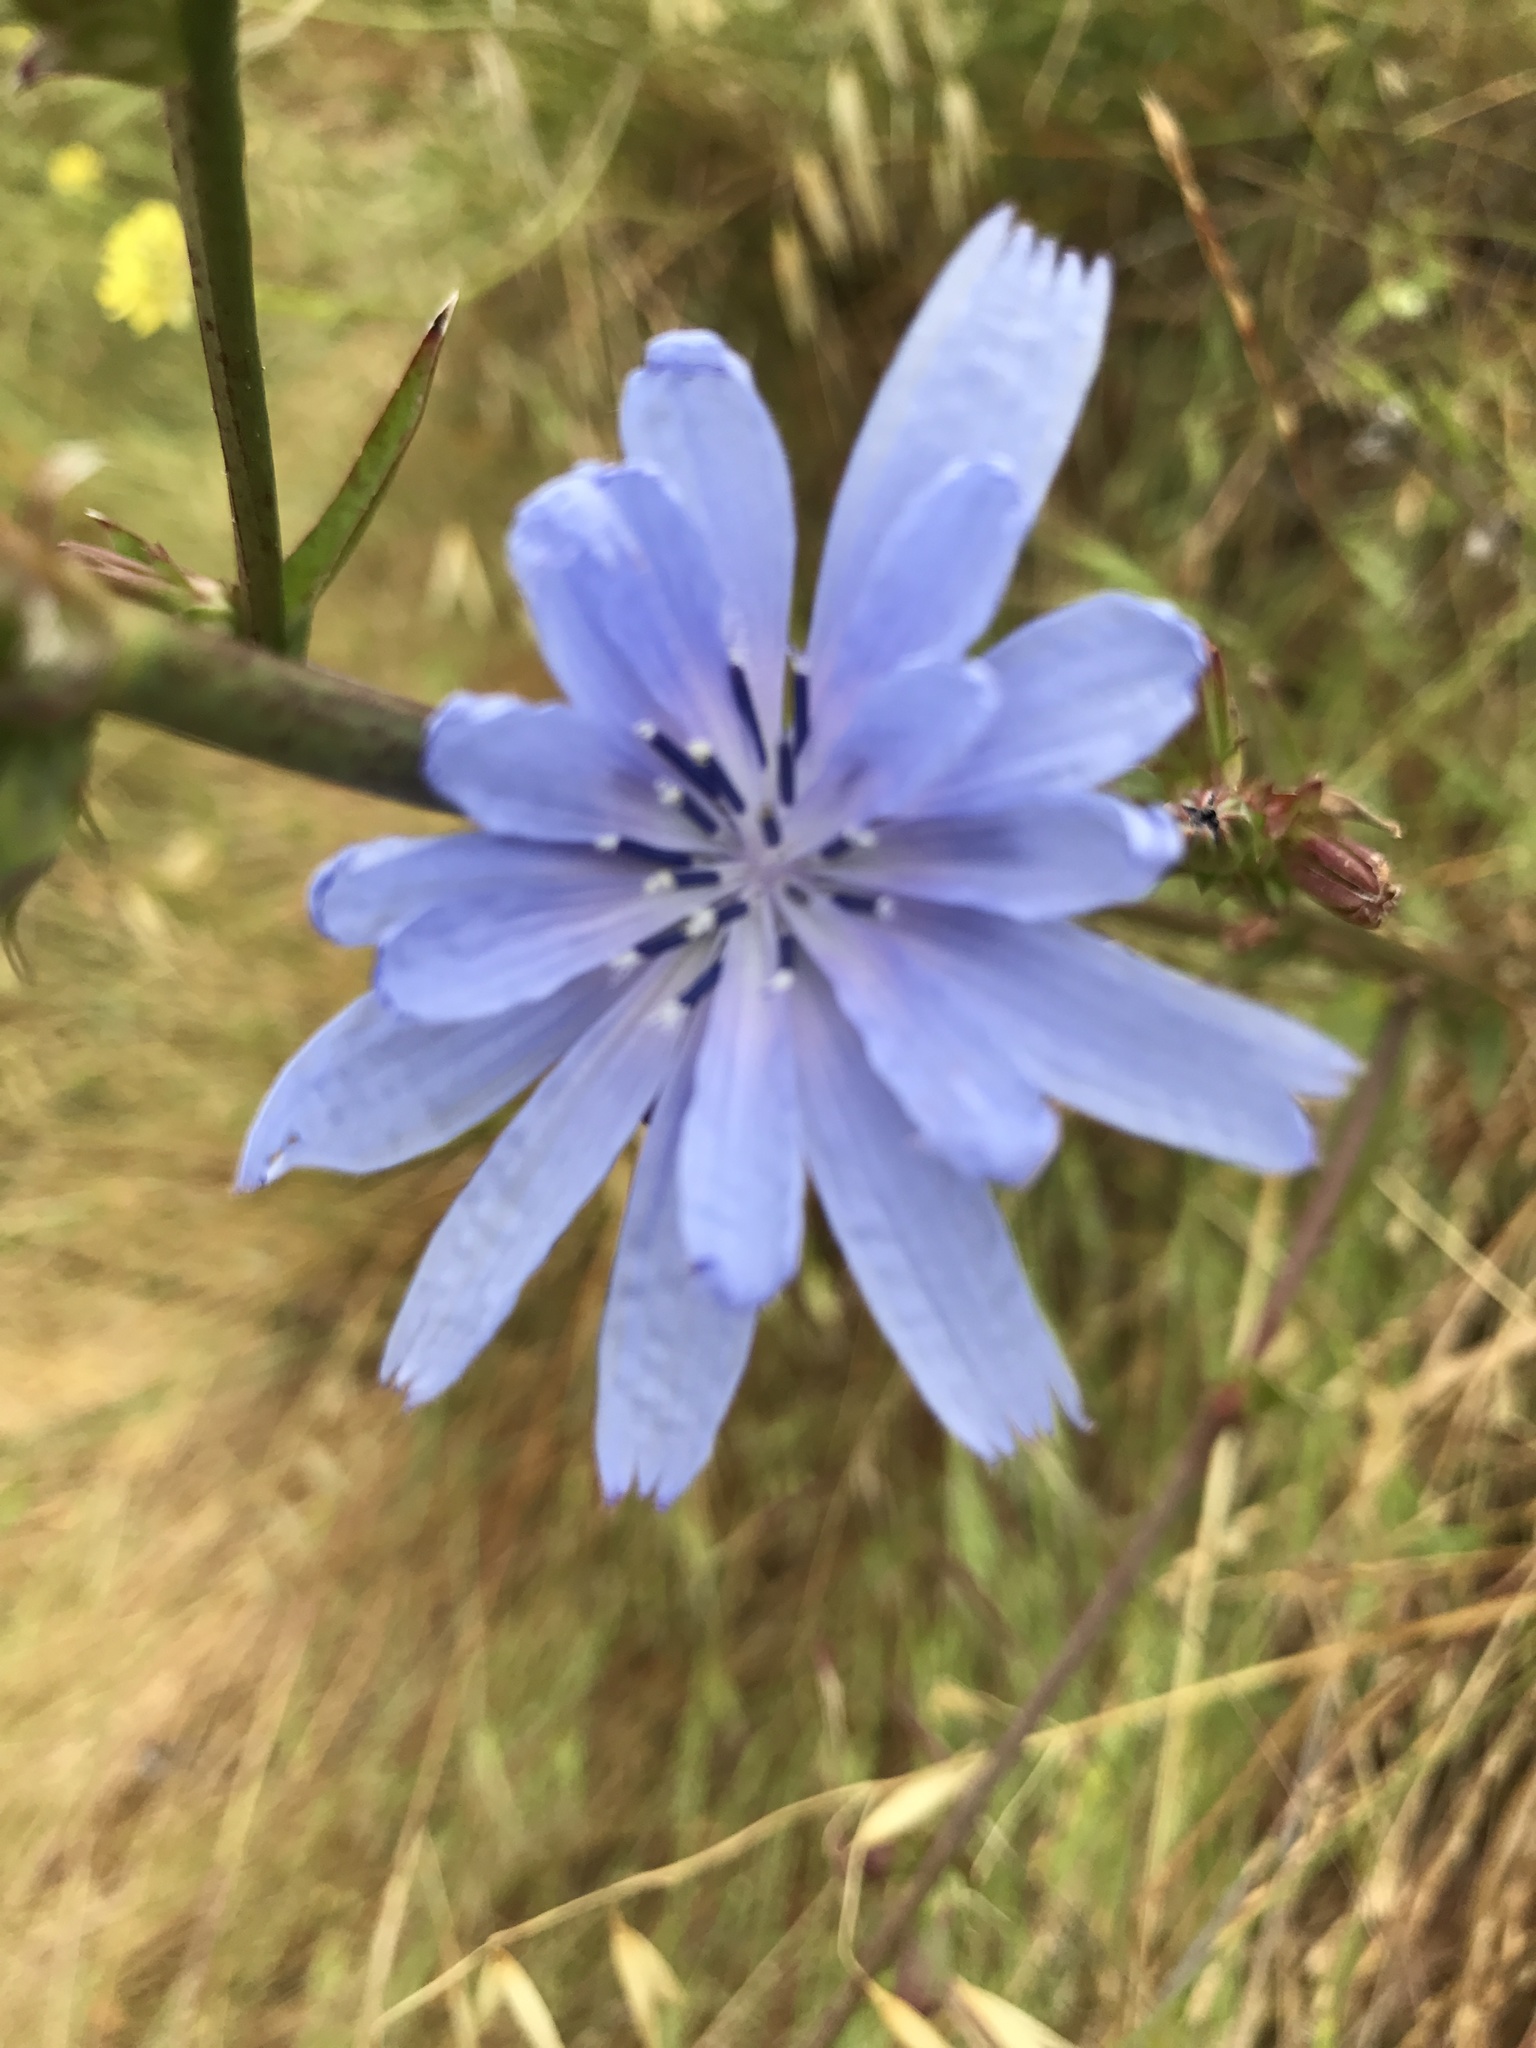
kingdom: Plantae
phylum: Tracheophyta
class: Magnoliopsida
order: Asterales
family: Asteraceae
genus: Cichorium
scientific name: Cichorium intybus
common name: Chicory
